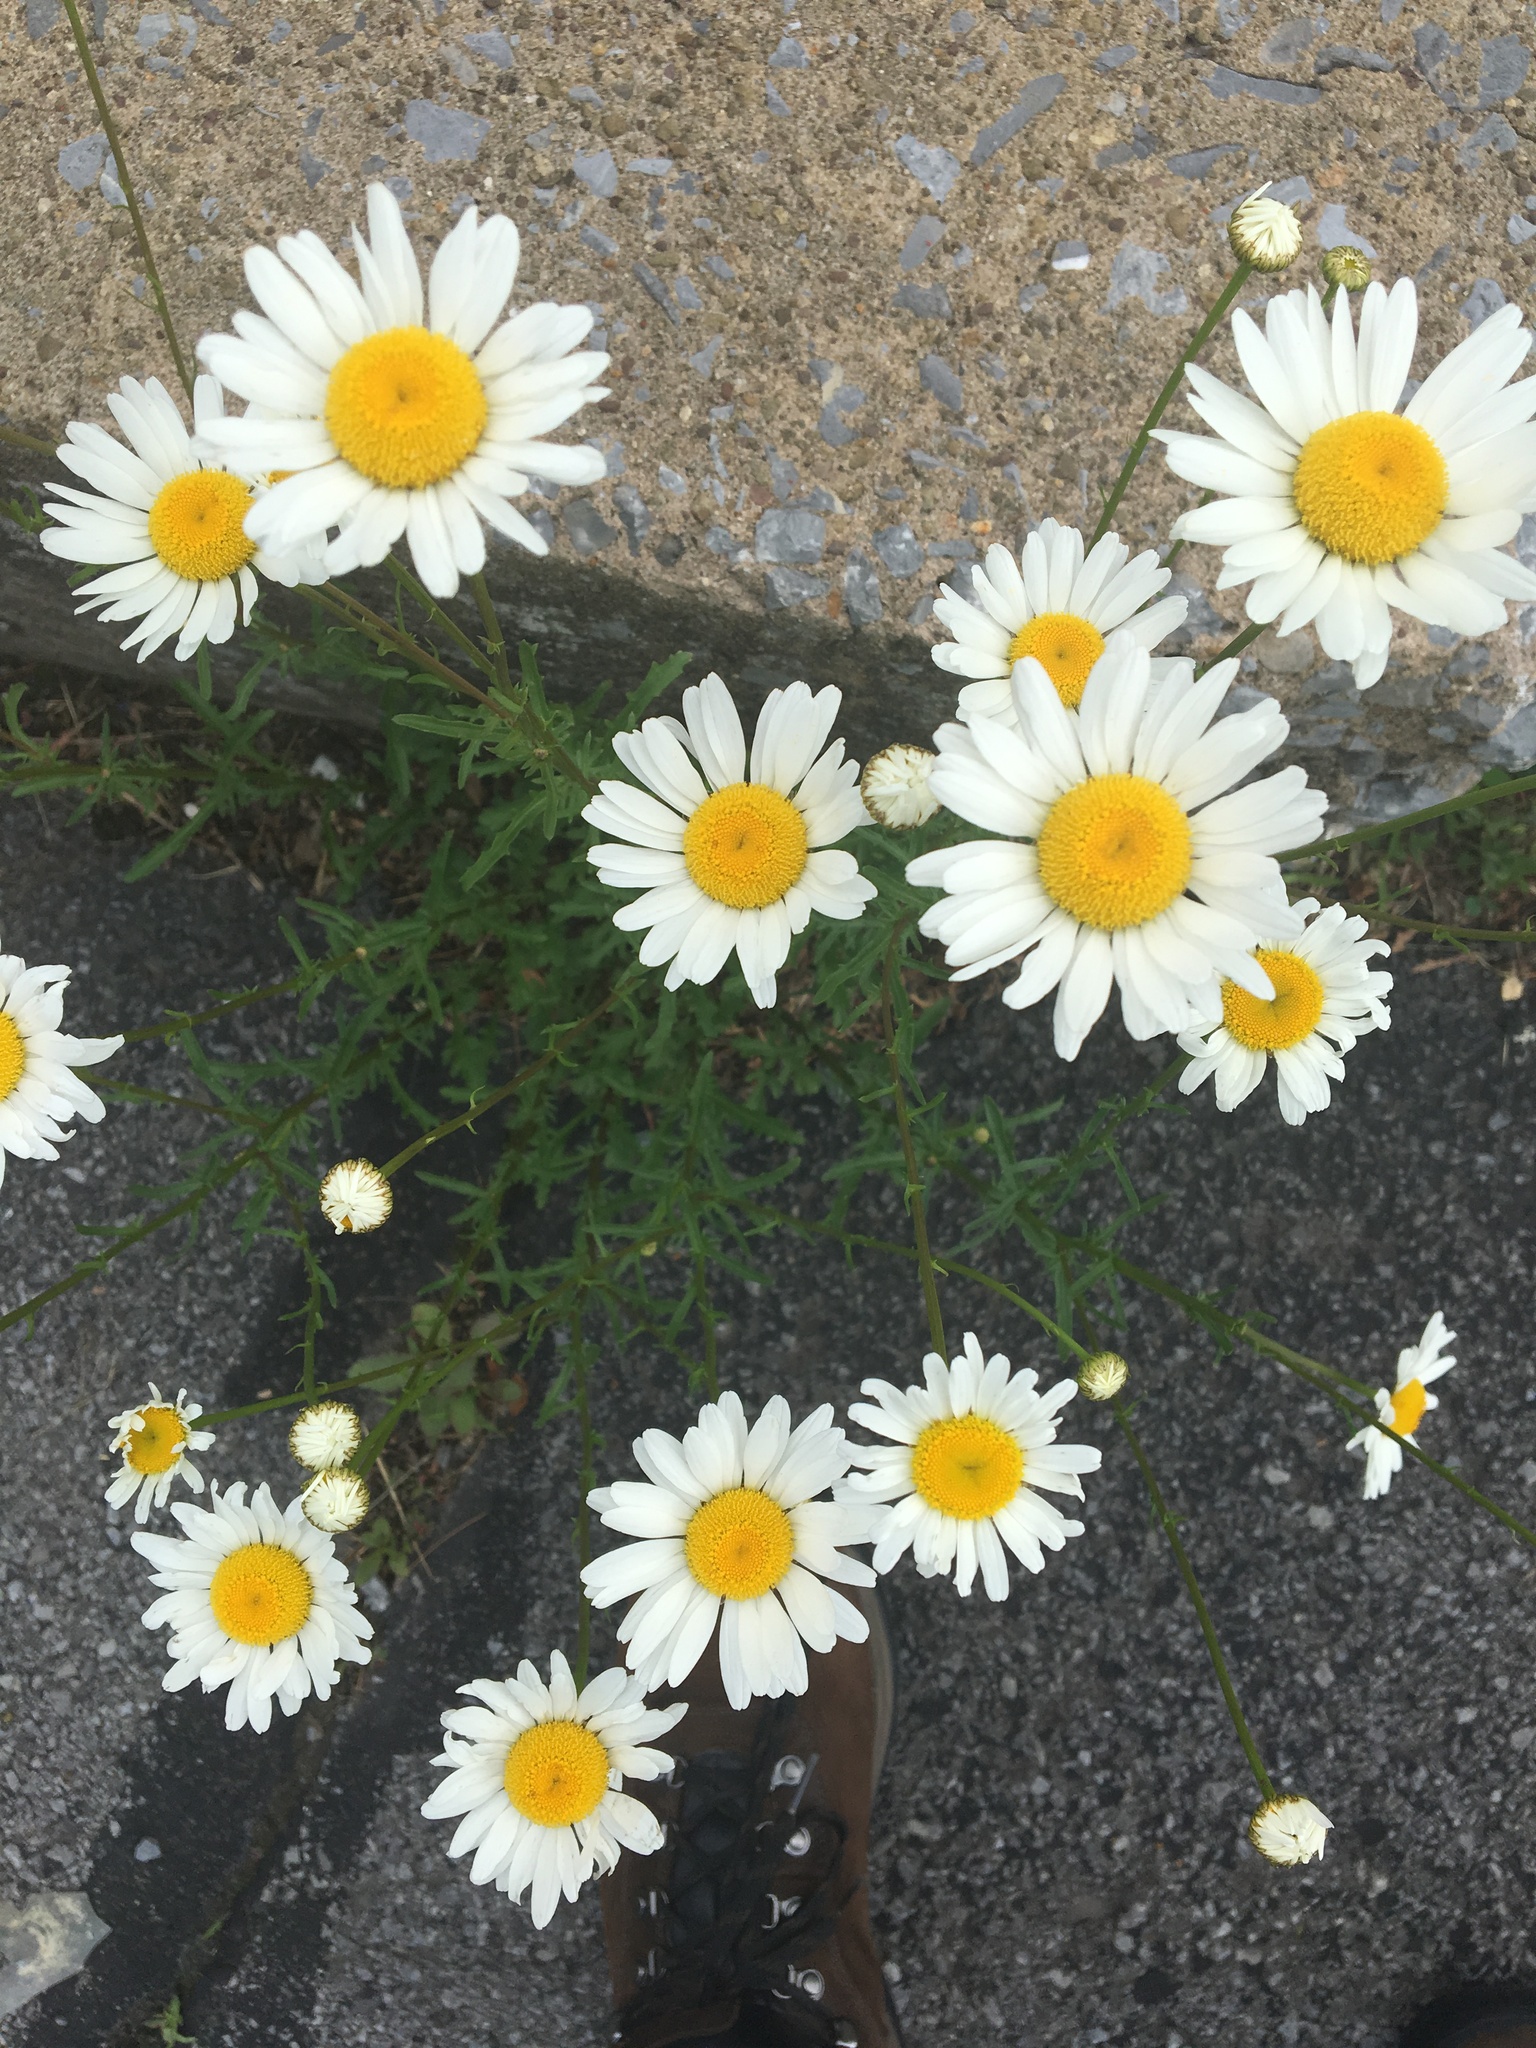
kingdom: Plantae
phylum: Tracheophyta
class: Magnoliopsida
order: Asterales
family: Asteraceae
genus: Leucanthemum
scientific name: Leucanthemum vulgare
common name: Oxeye daisy
